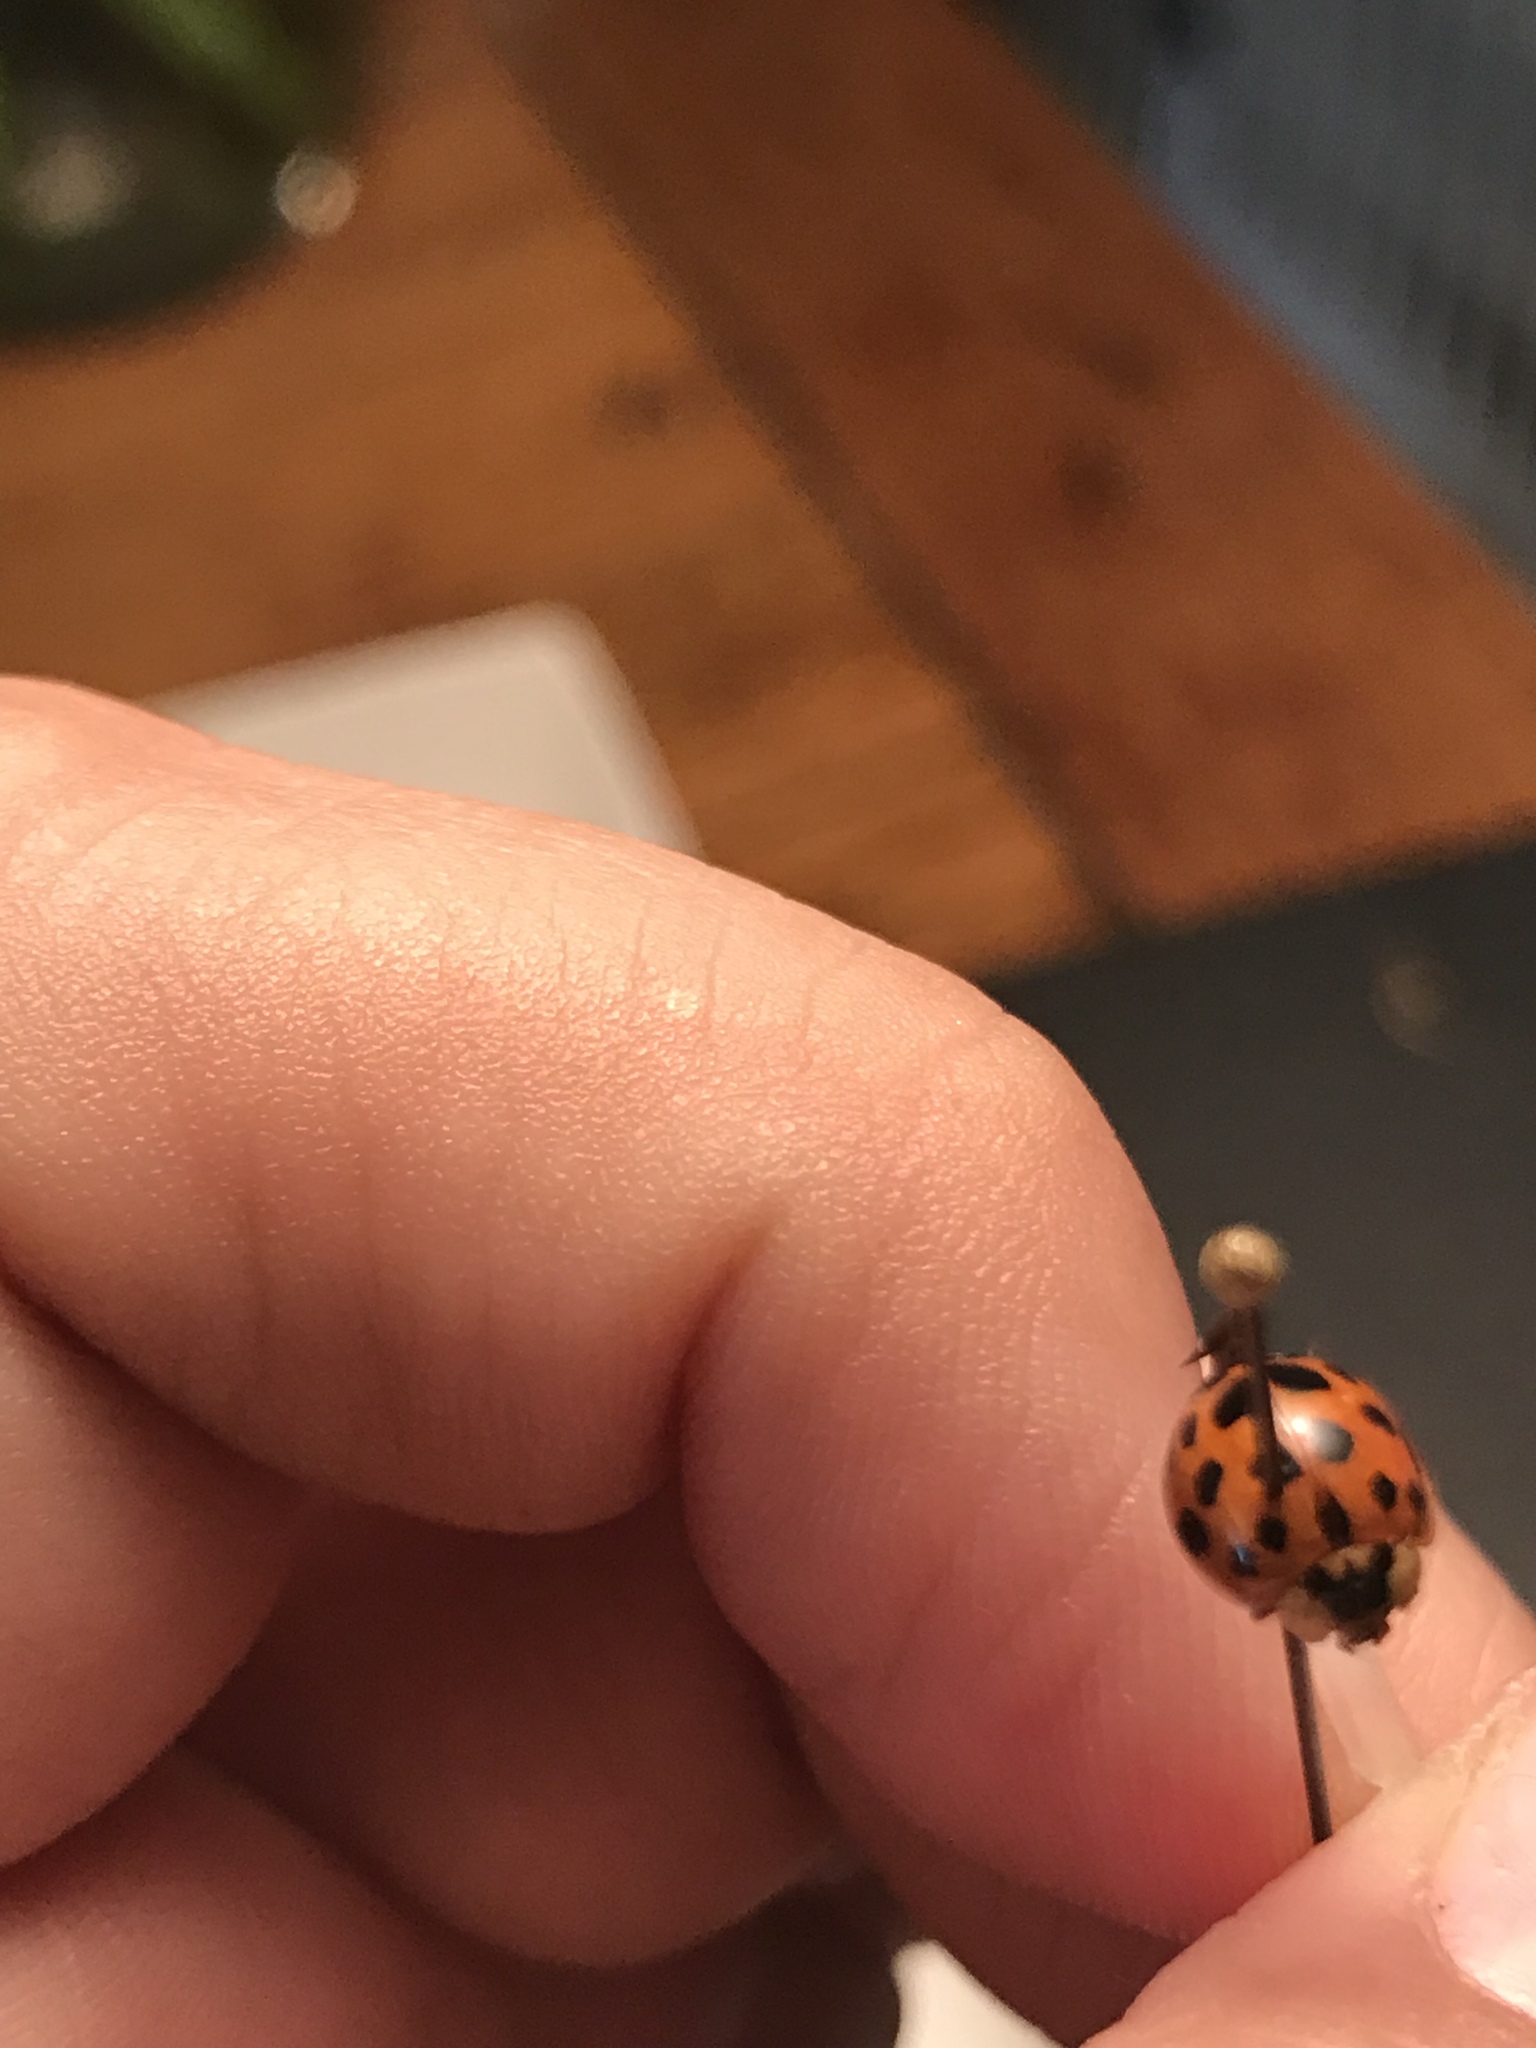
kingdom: Animalia
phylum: Arthropoda
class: Insecta
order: Coleoptera
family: Coccinellidae
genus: Harmonia
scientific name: Harmonia axyridis
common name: Harlequin ladybird
